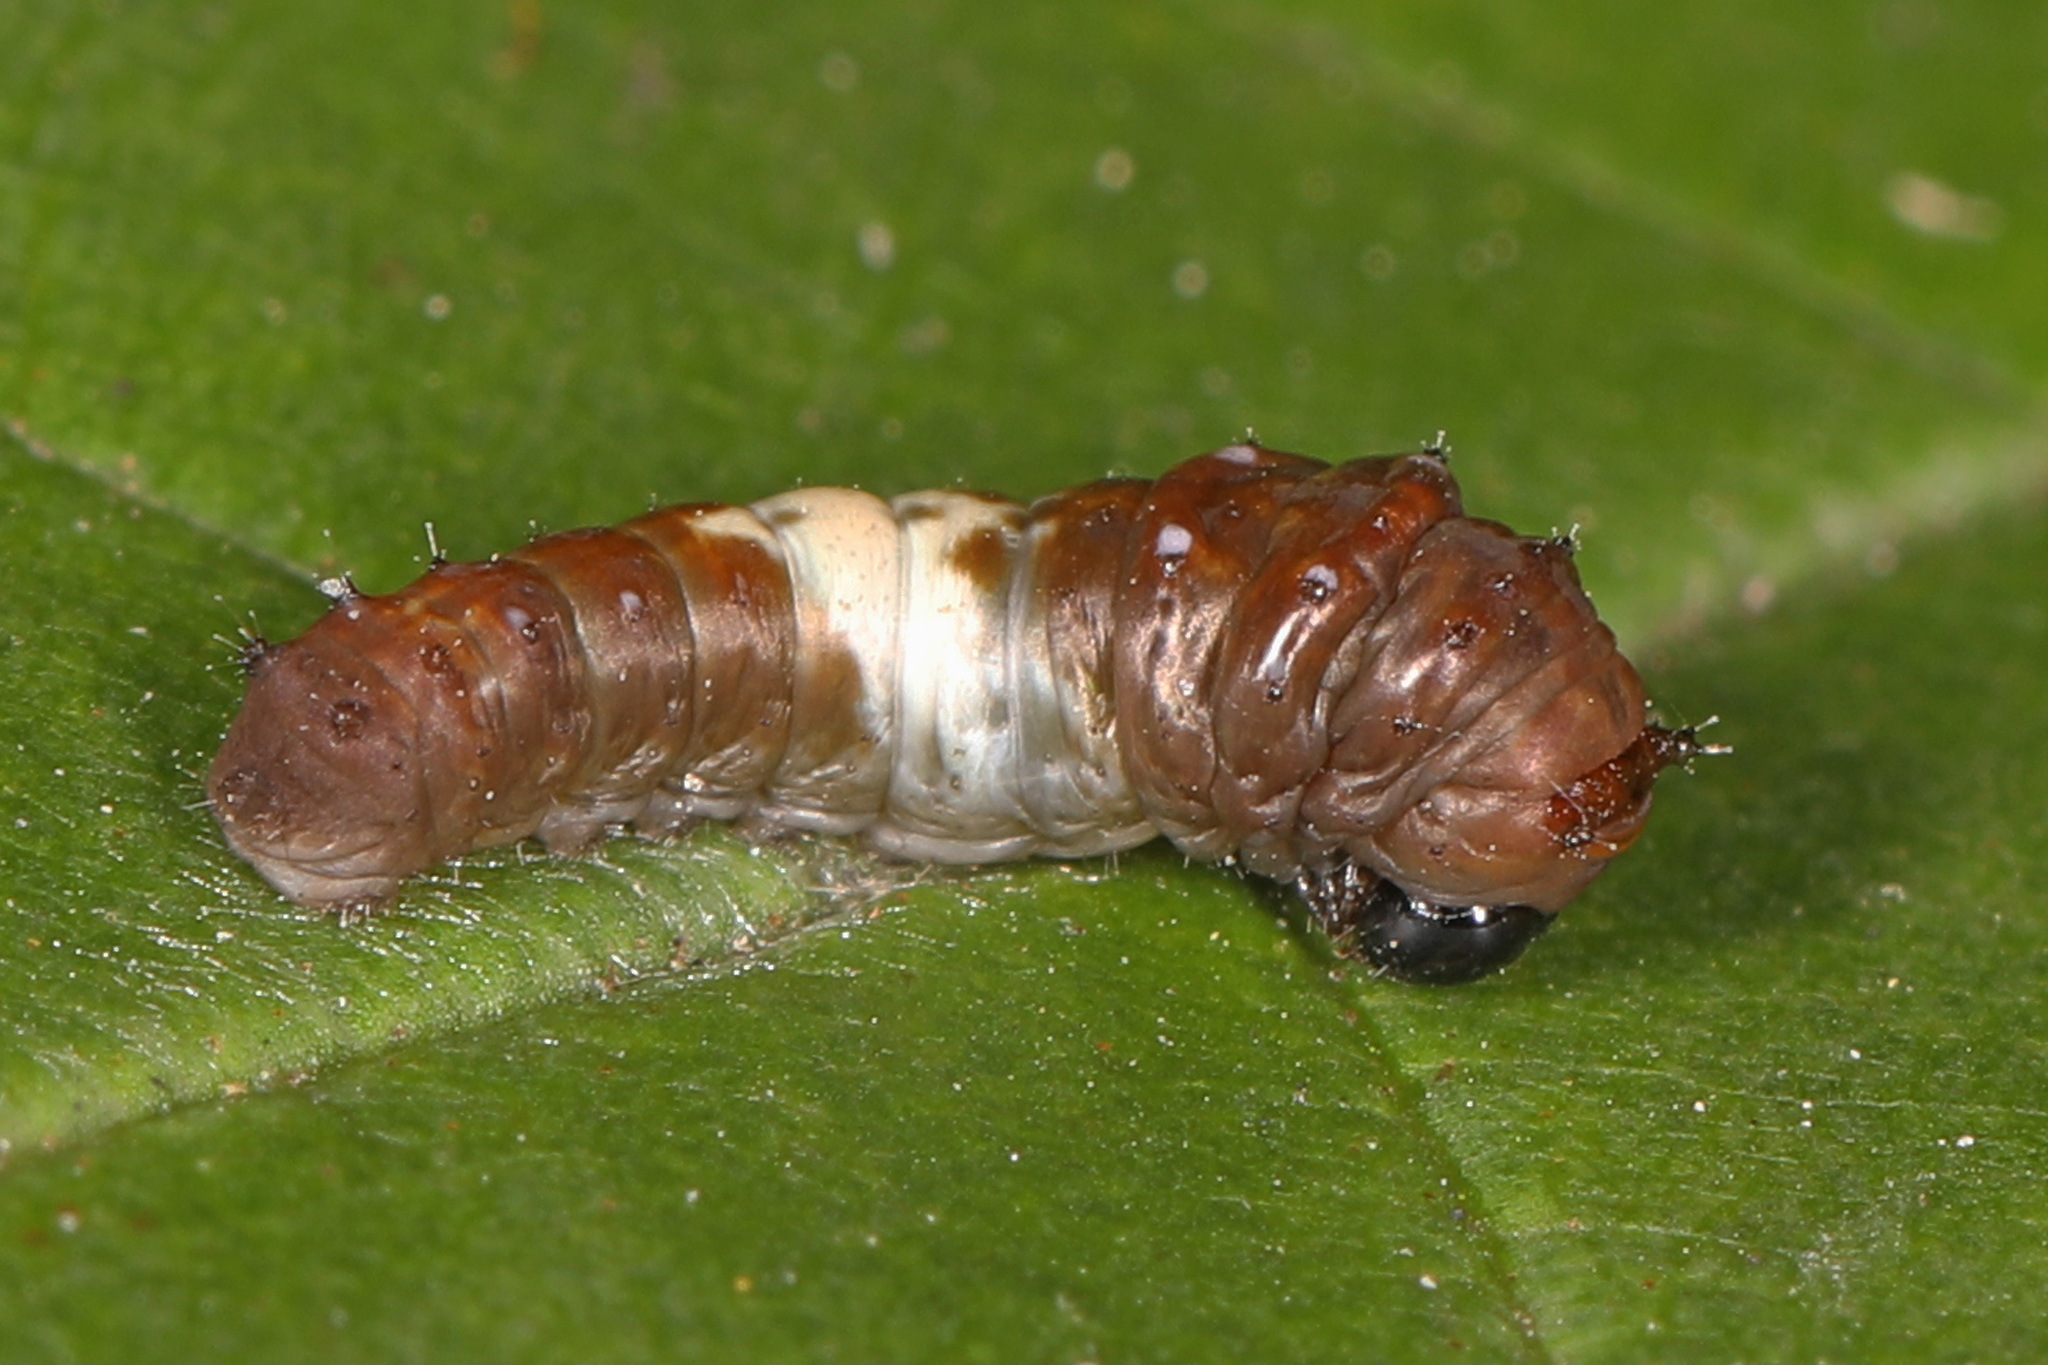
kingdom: Animalia
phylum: Arthropoda
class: Insecta
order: Lepidoptera
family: Papilionidae
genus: Papilio
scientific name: Papilio glaucus
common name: Tiger swallowtail
